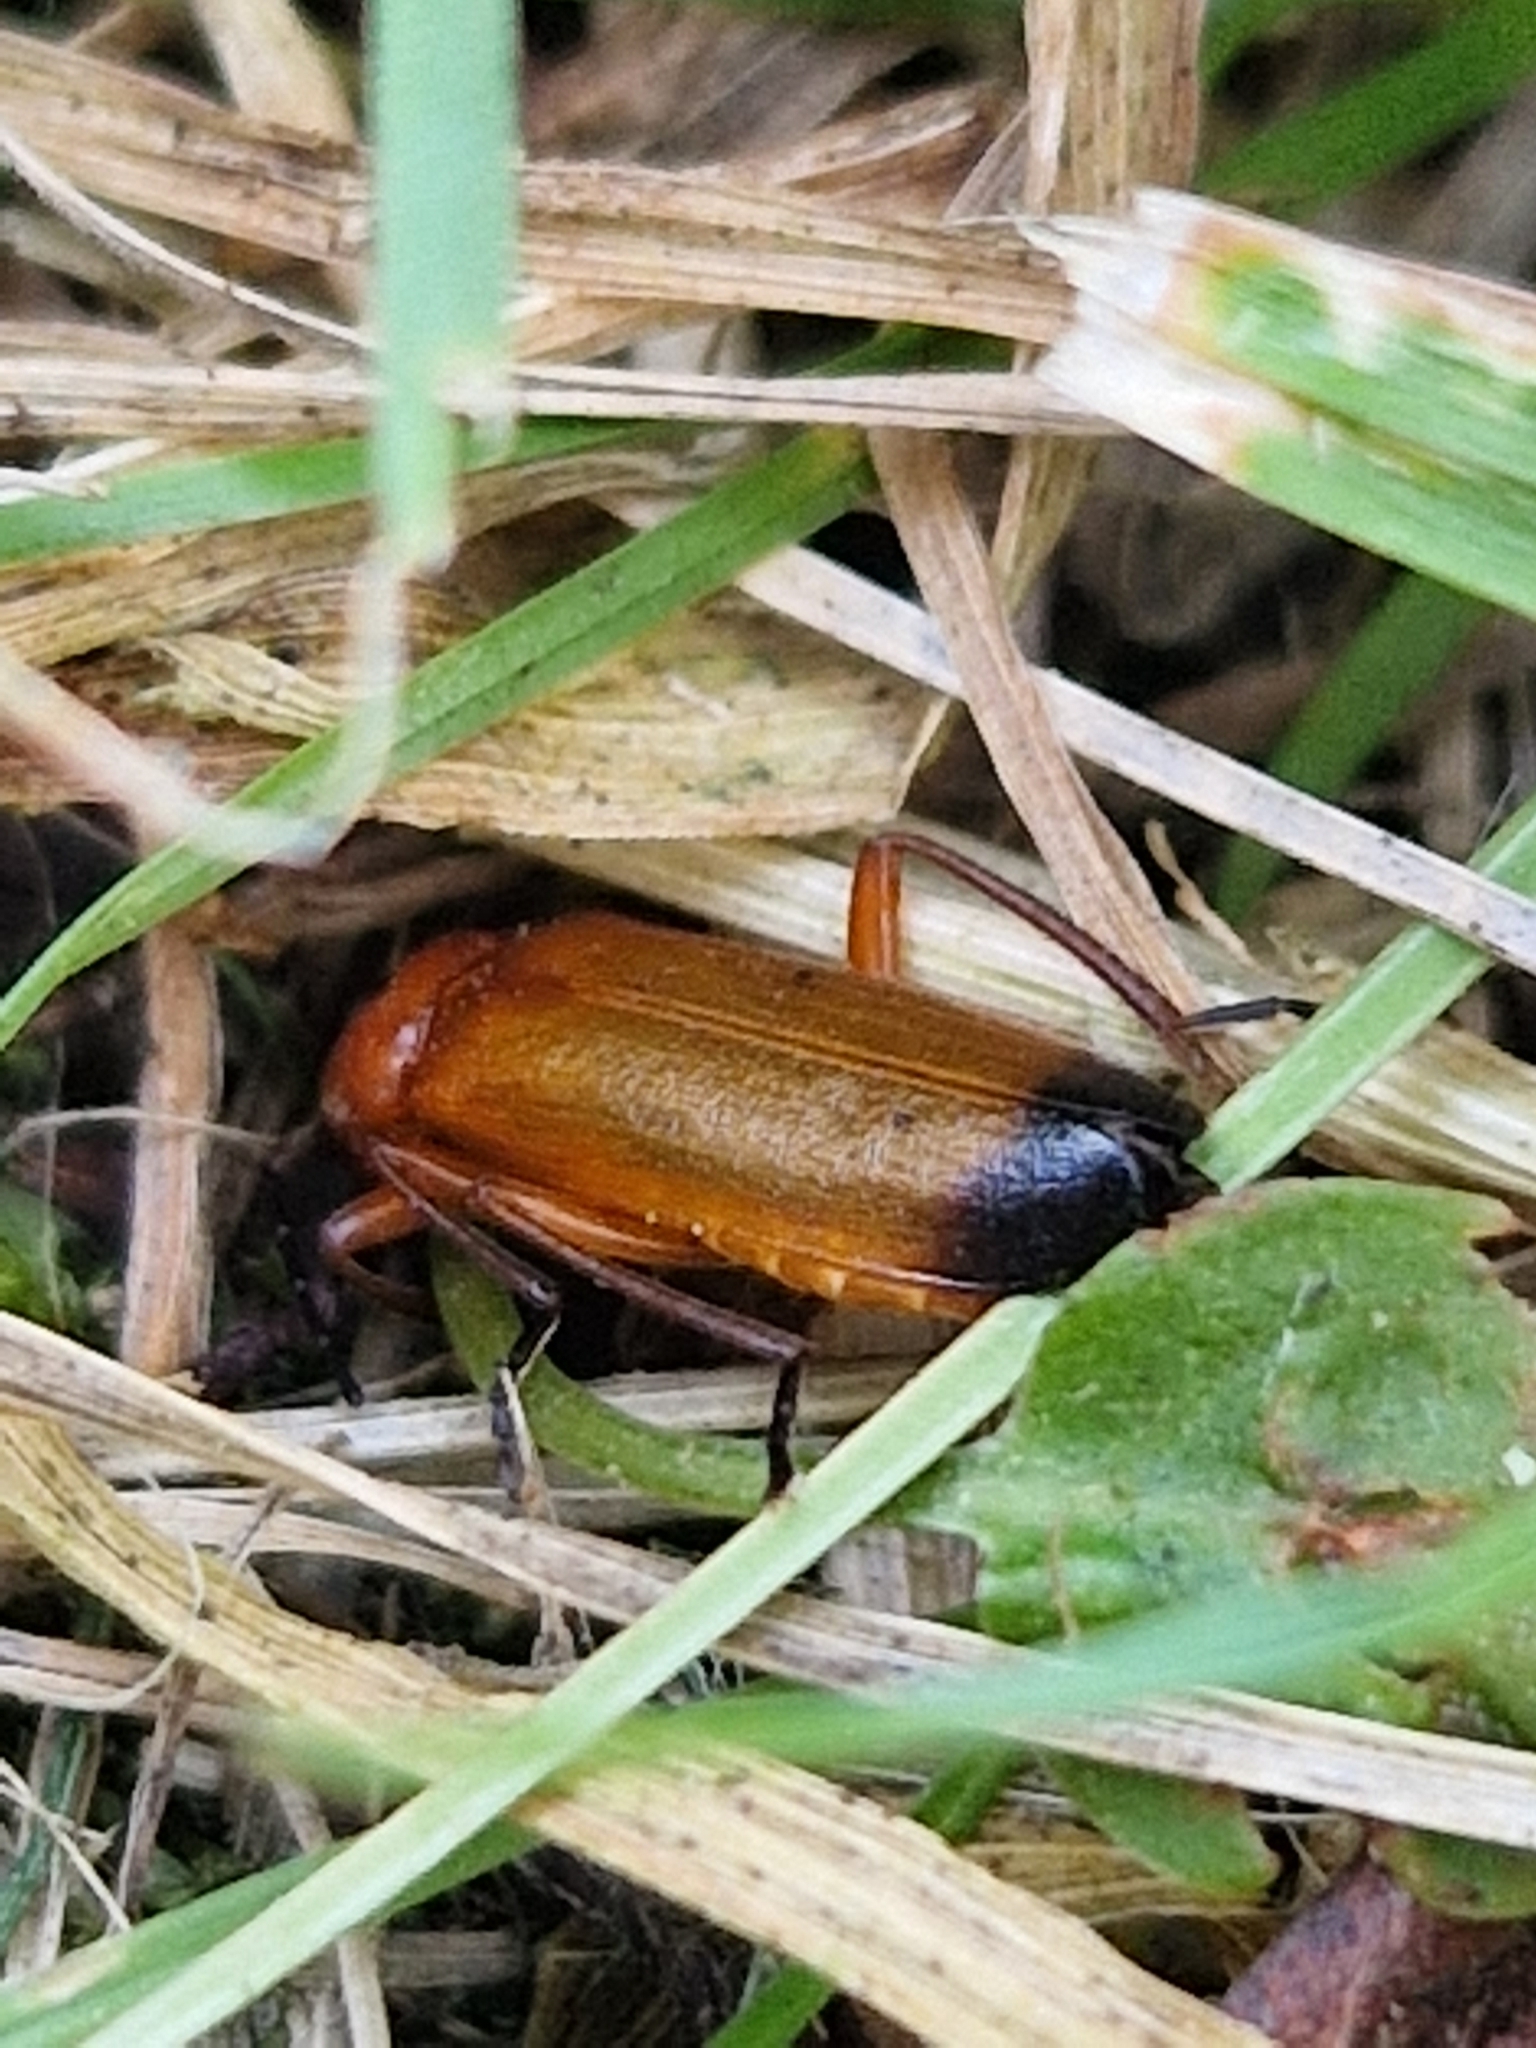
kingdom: Animalia
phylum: Arthropoda
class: Insecta
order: Coleoptera
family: Cantharidae
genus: Rhagonycha
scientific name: Rhagonycha fulva
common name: Common red soldier beetle
